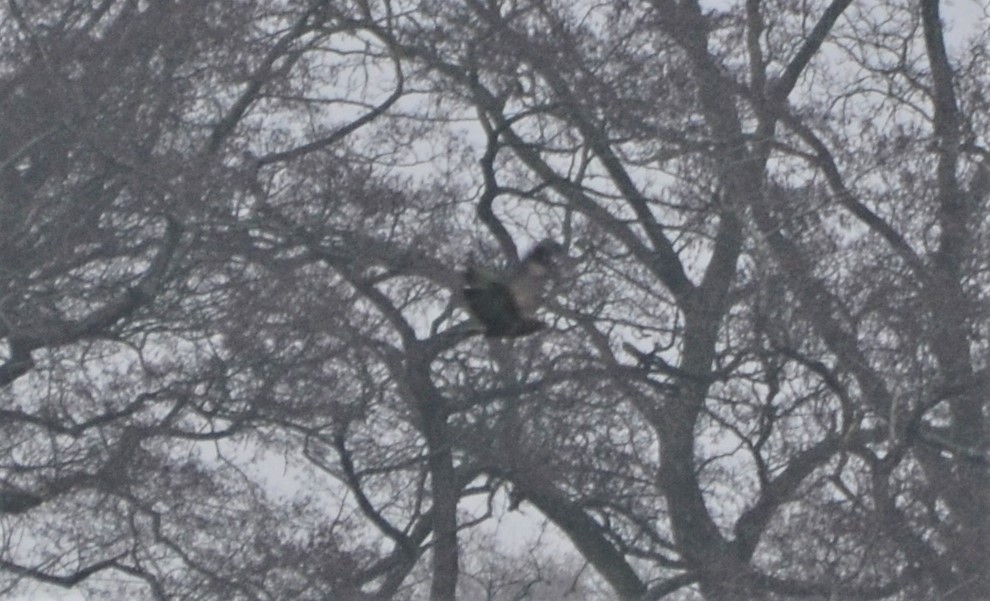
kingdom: Animalia
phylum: Chordata
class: Aves
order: Accipitriformes
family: Accipitridae
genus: Buteo
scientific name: Buteo buteo
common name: Common buzzard
